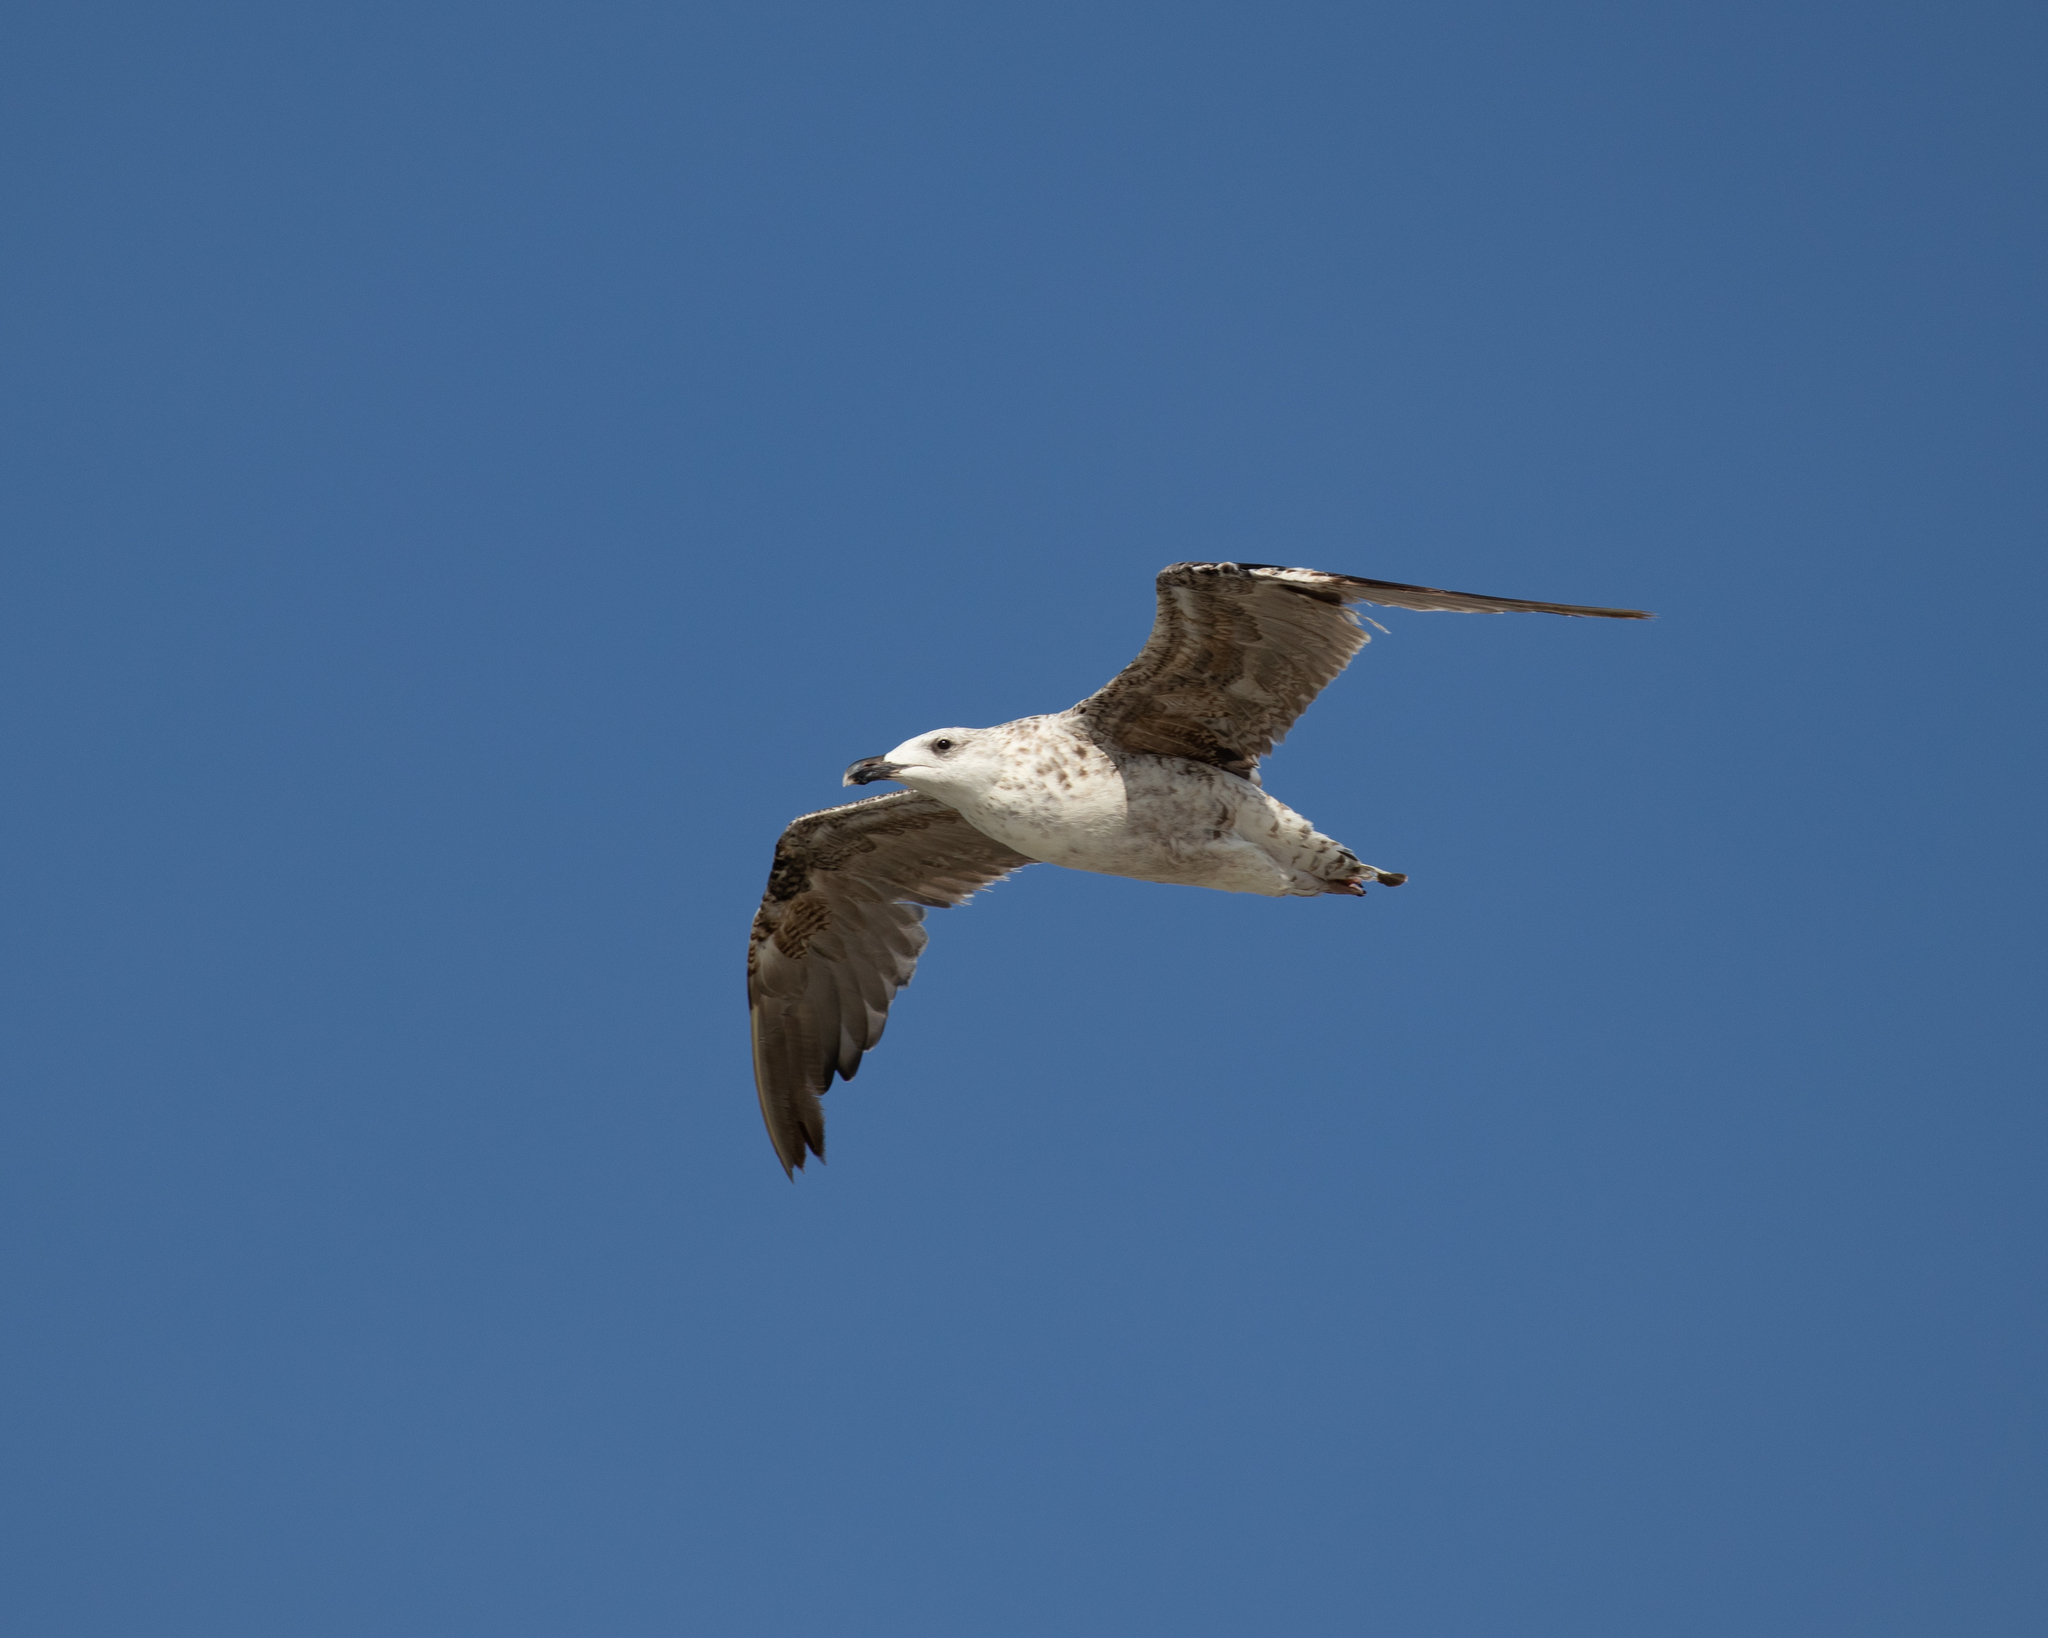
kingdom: Animalia
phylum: Chordata
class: Aves
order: Charadriiformes
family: Laridae
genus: Larus
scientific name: Larus marinus
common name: Great black-backed gull
